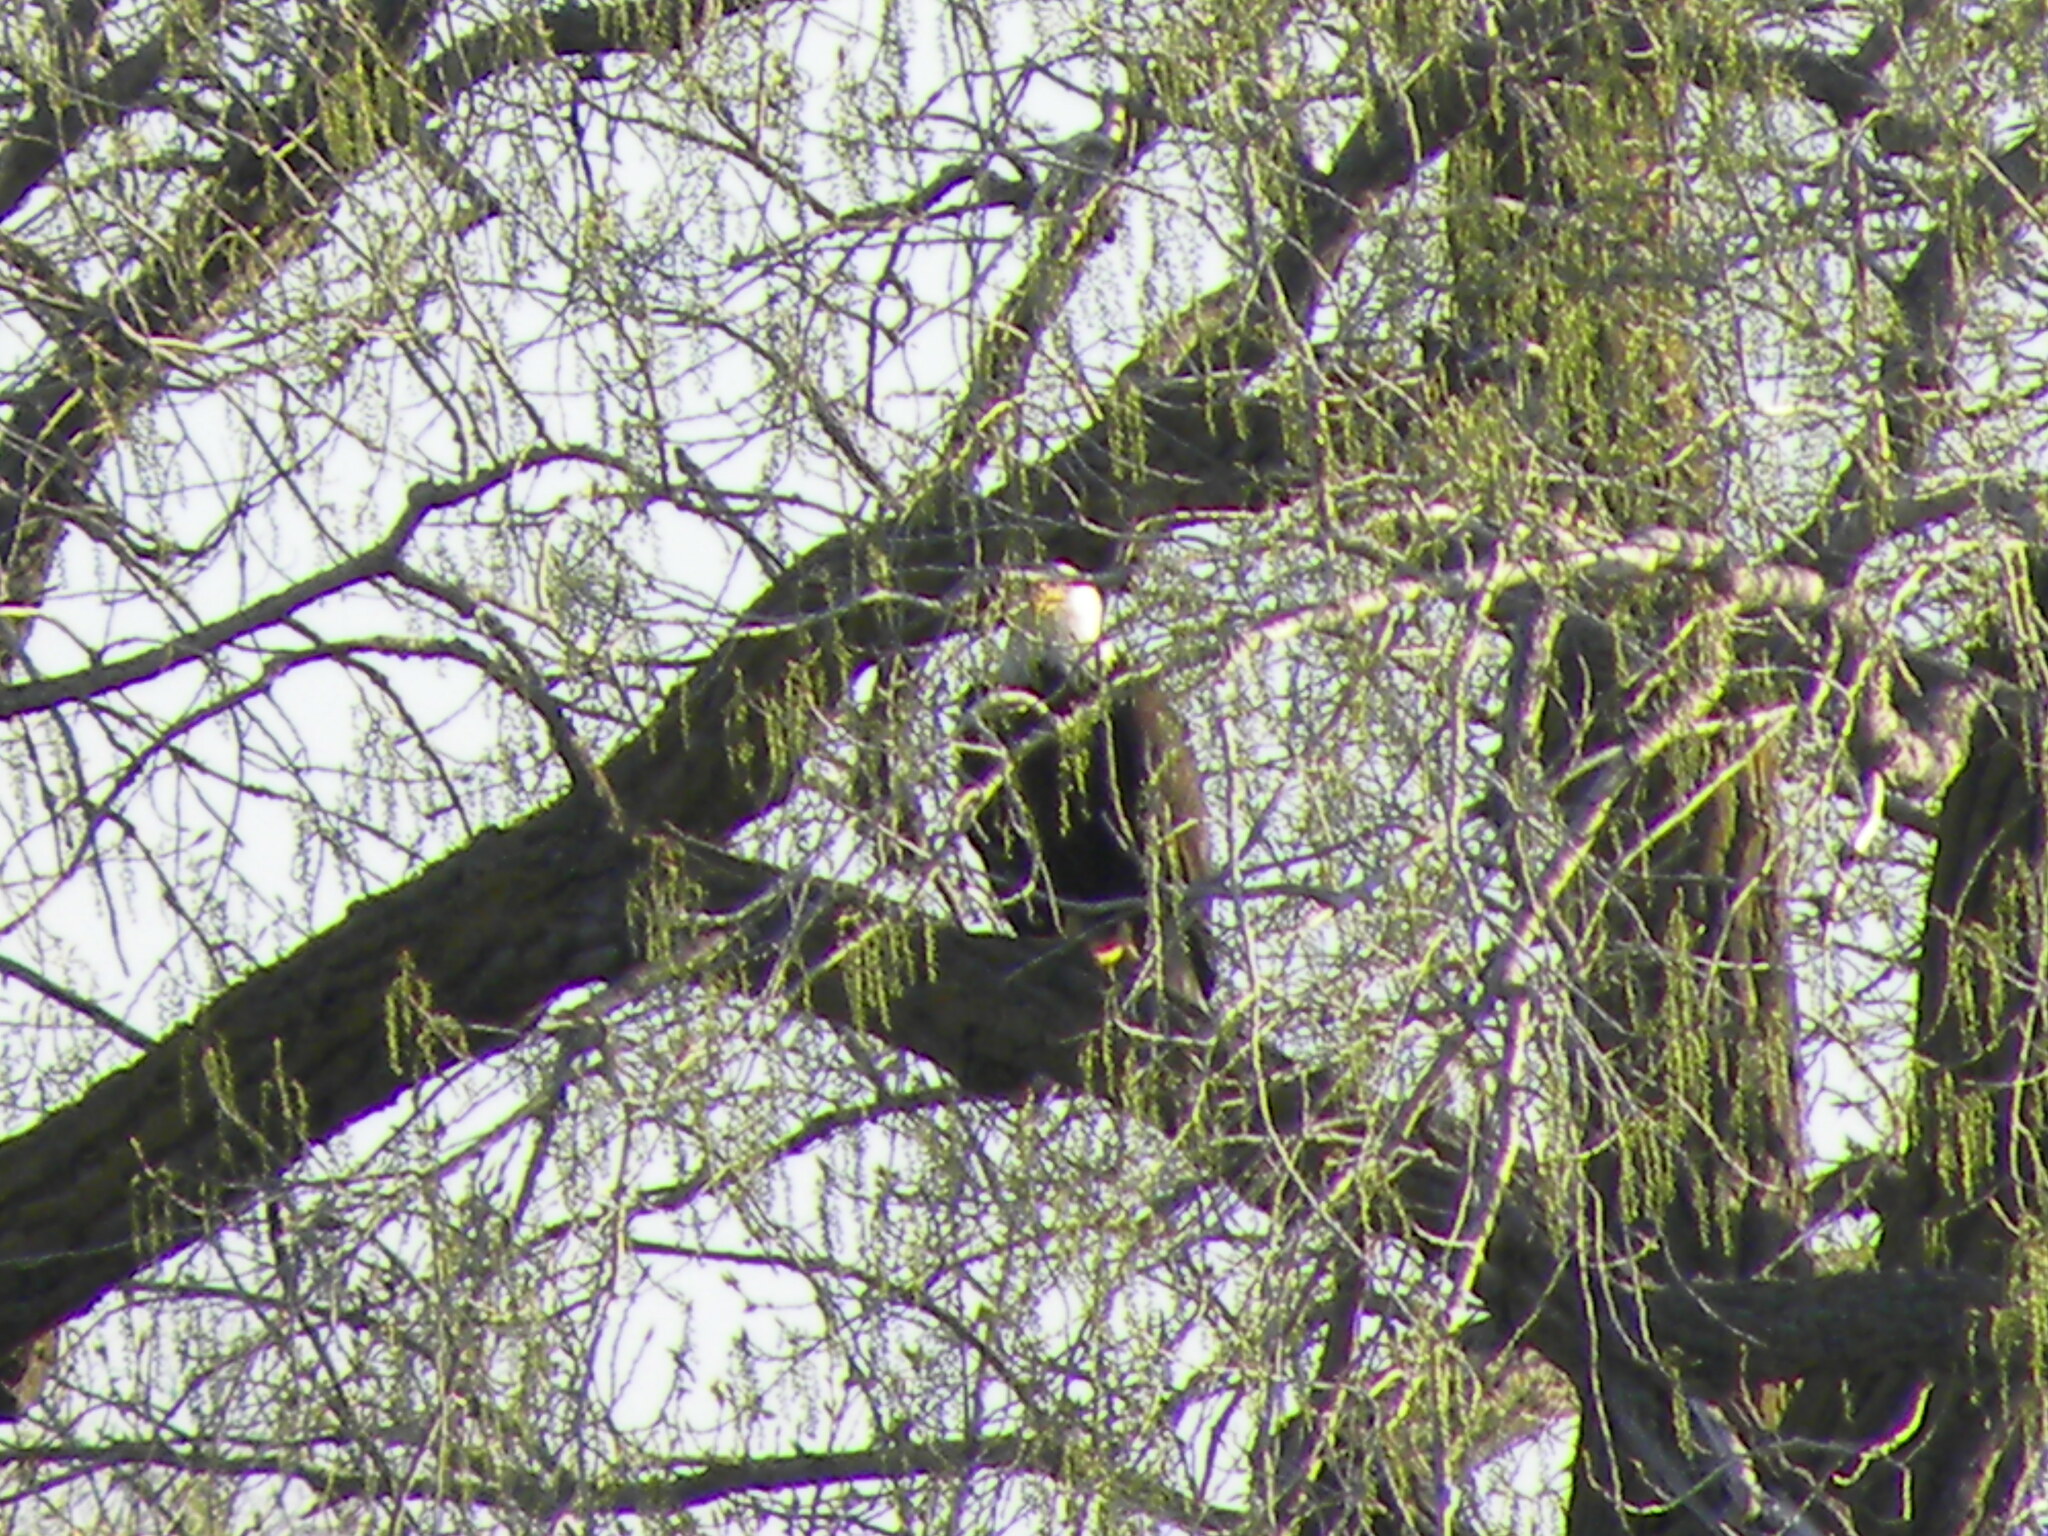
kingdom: Animalia
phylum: Chordata
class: Aves
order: Accipitriformes
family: Accipitridae
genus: Haliaeetus
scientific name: Haliaeetus leucocephalus
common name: Bald eagle
